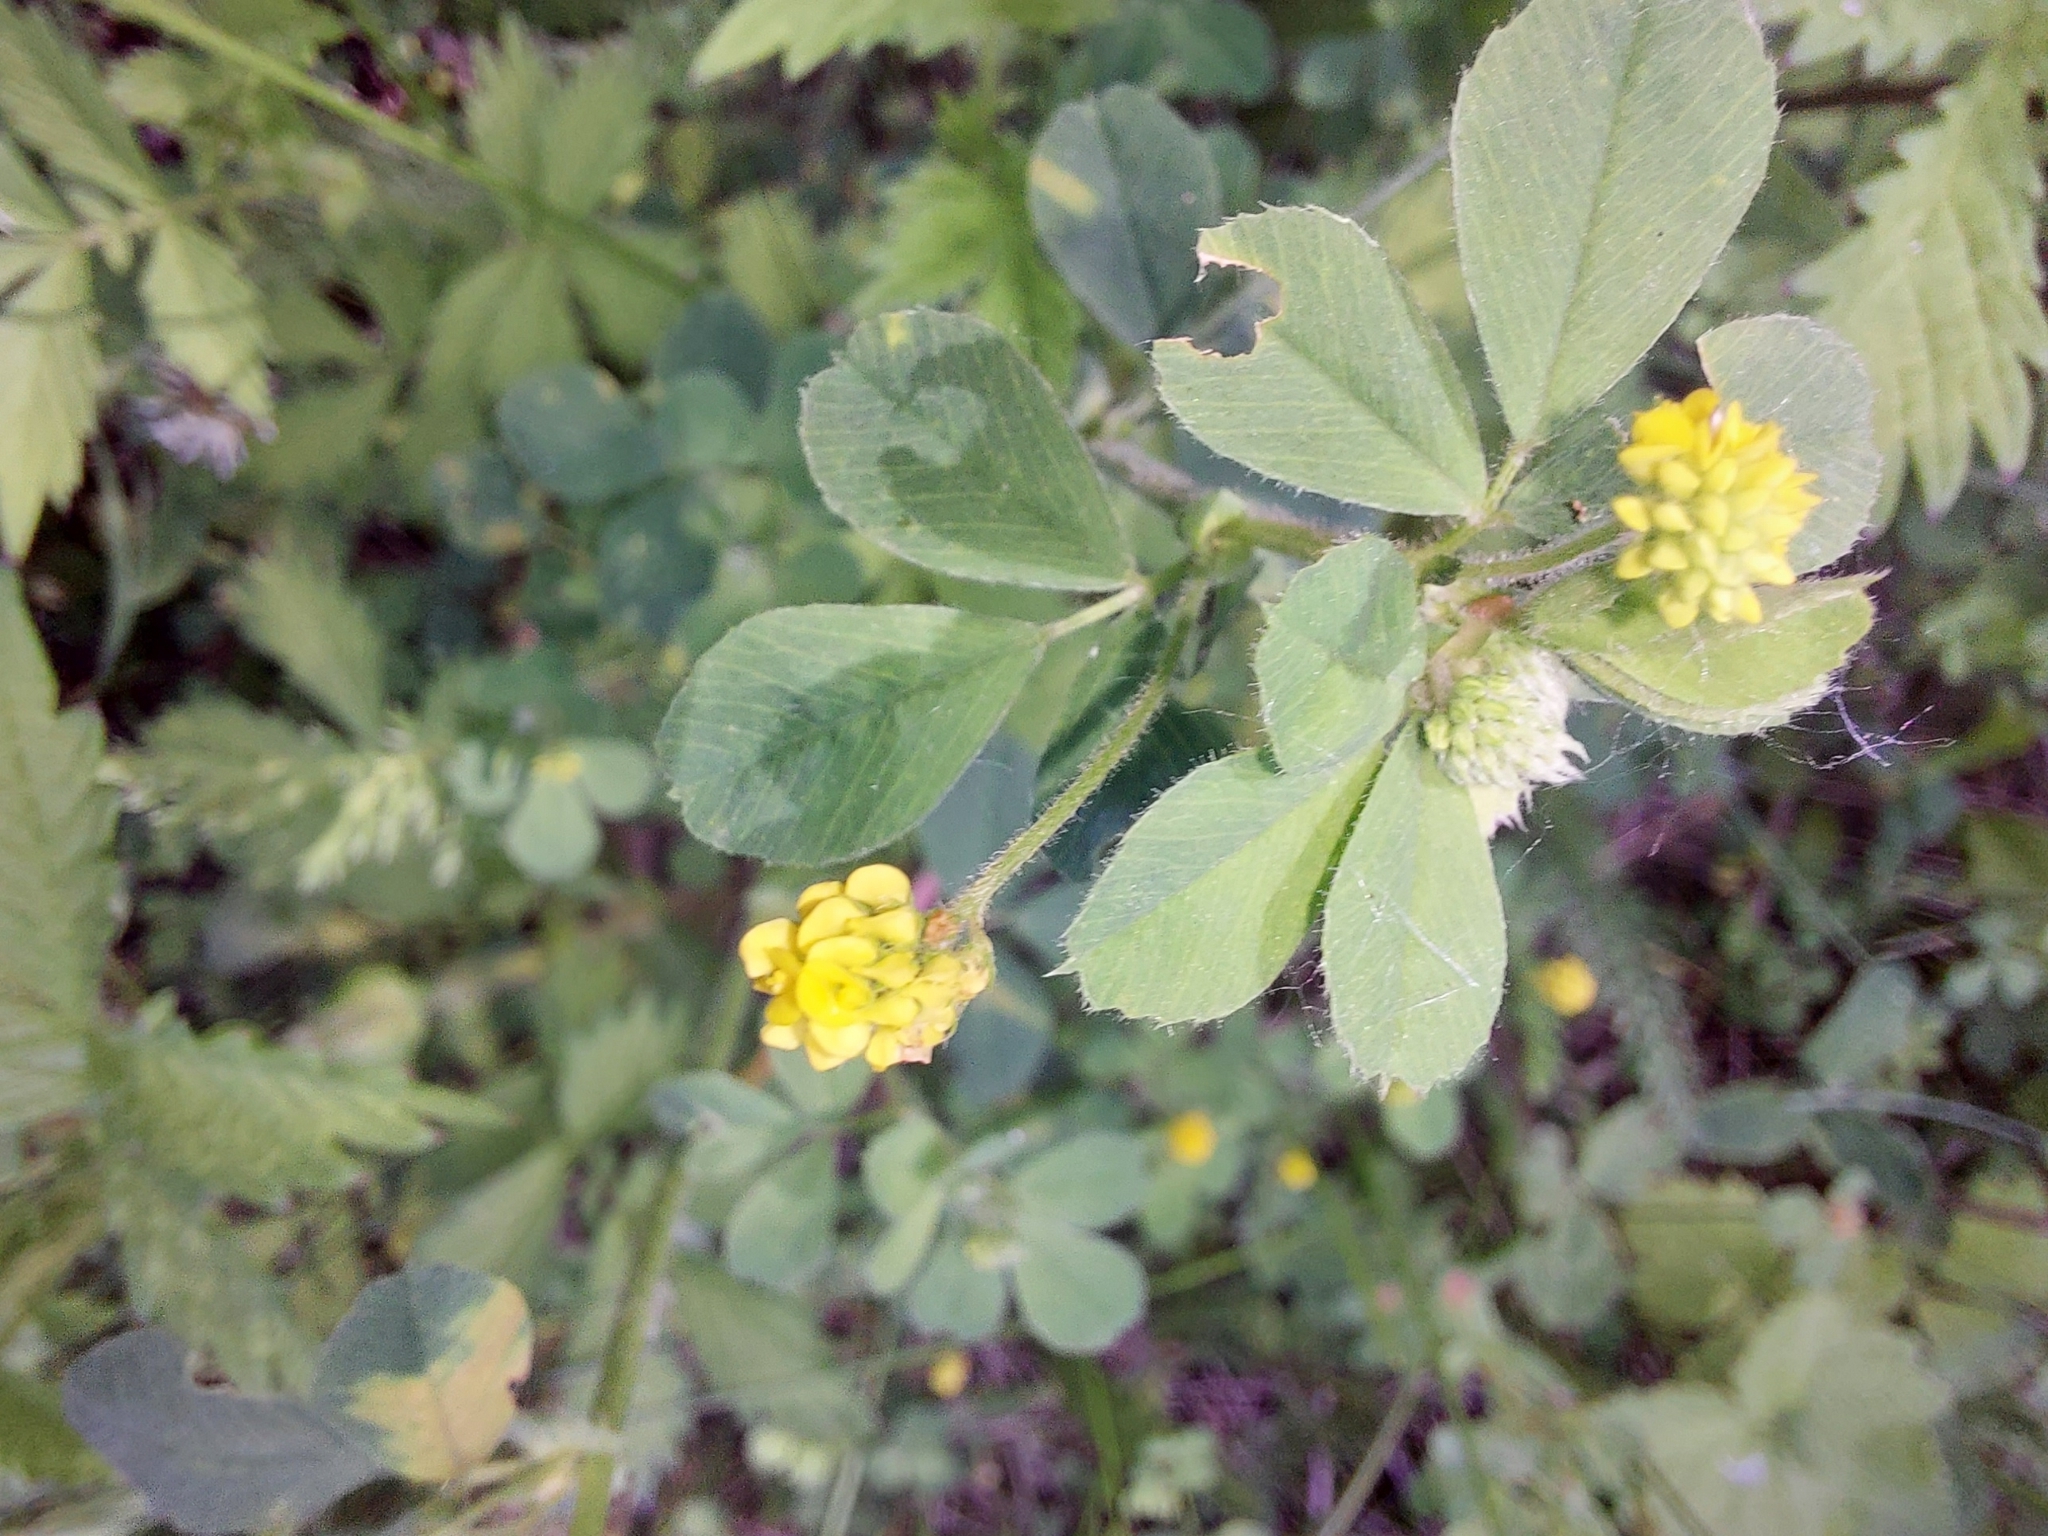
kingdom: Plantae
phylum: Tracheophyta
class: Magnoliopsida
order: Fabales
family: Fabaceae
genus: Medicago
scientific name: Medicago lupulina
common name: Black medick
